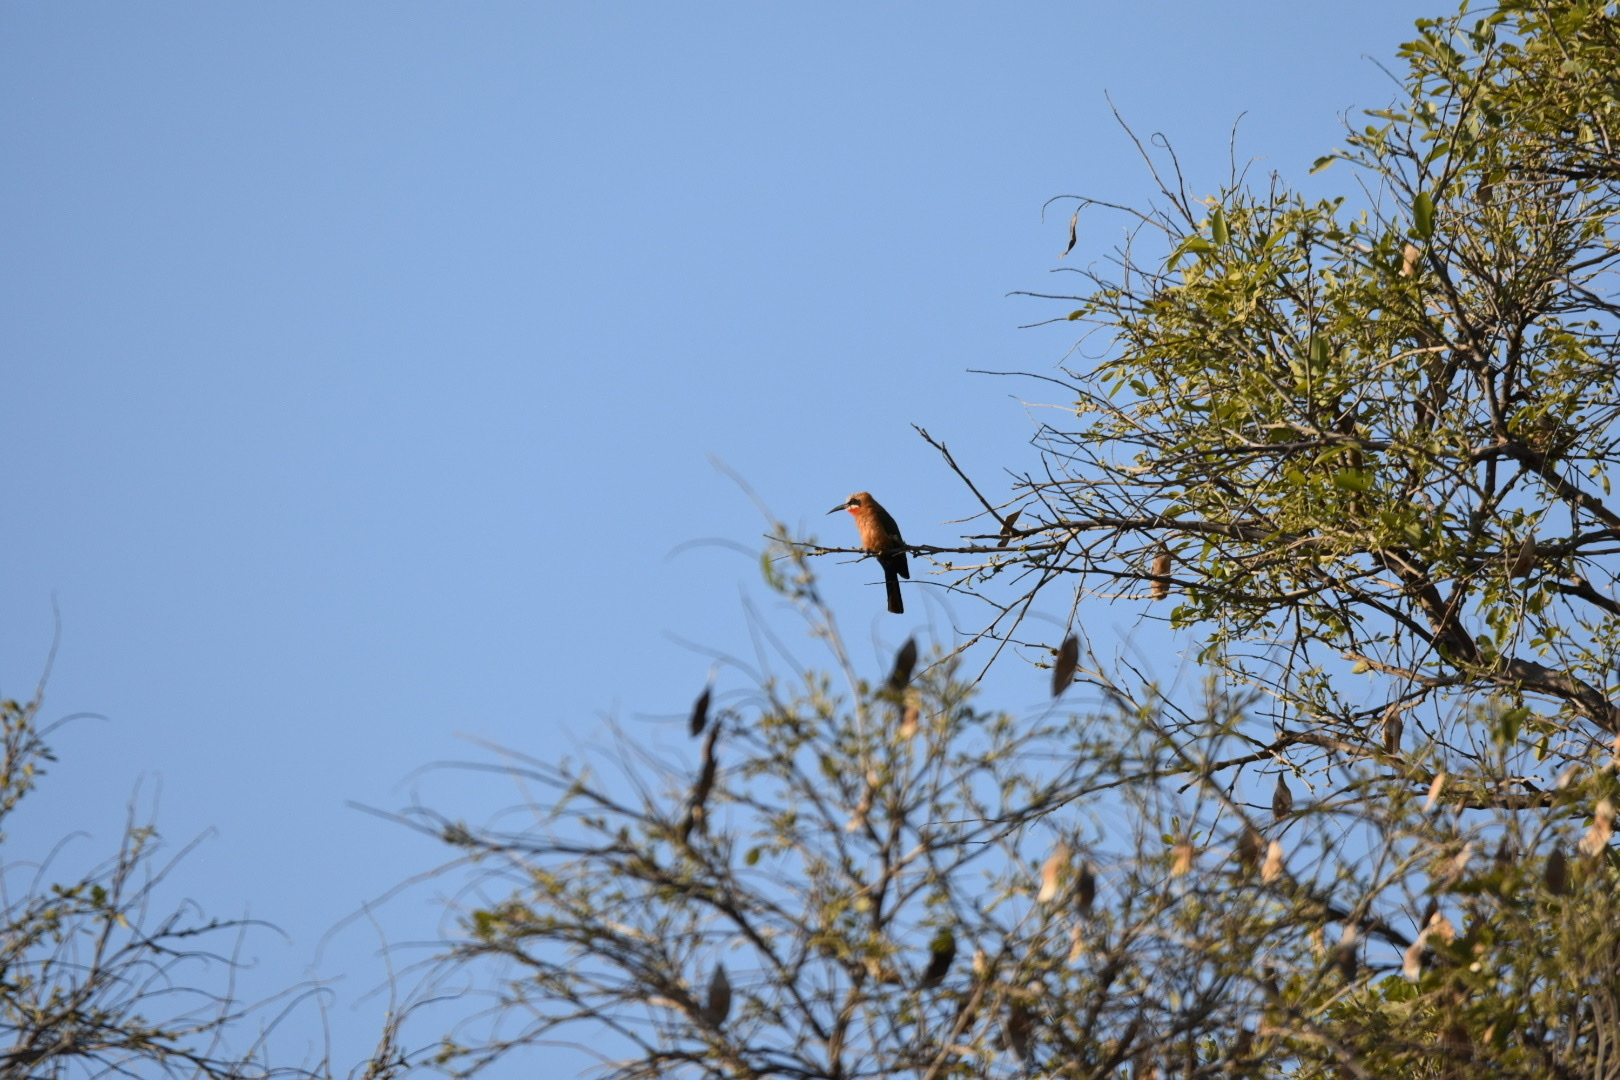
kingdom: Animalia
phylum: Chordata
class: Aves
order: Coraciiformes
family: Meropidae
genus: Merops
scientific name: Merops bullockoides
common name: White-fronted bee-eater
